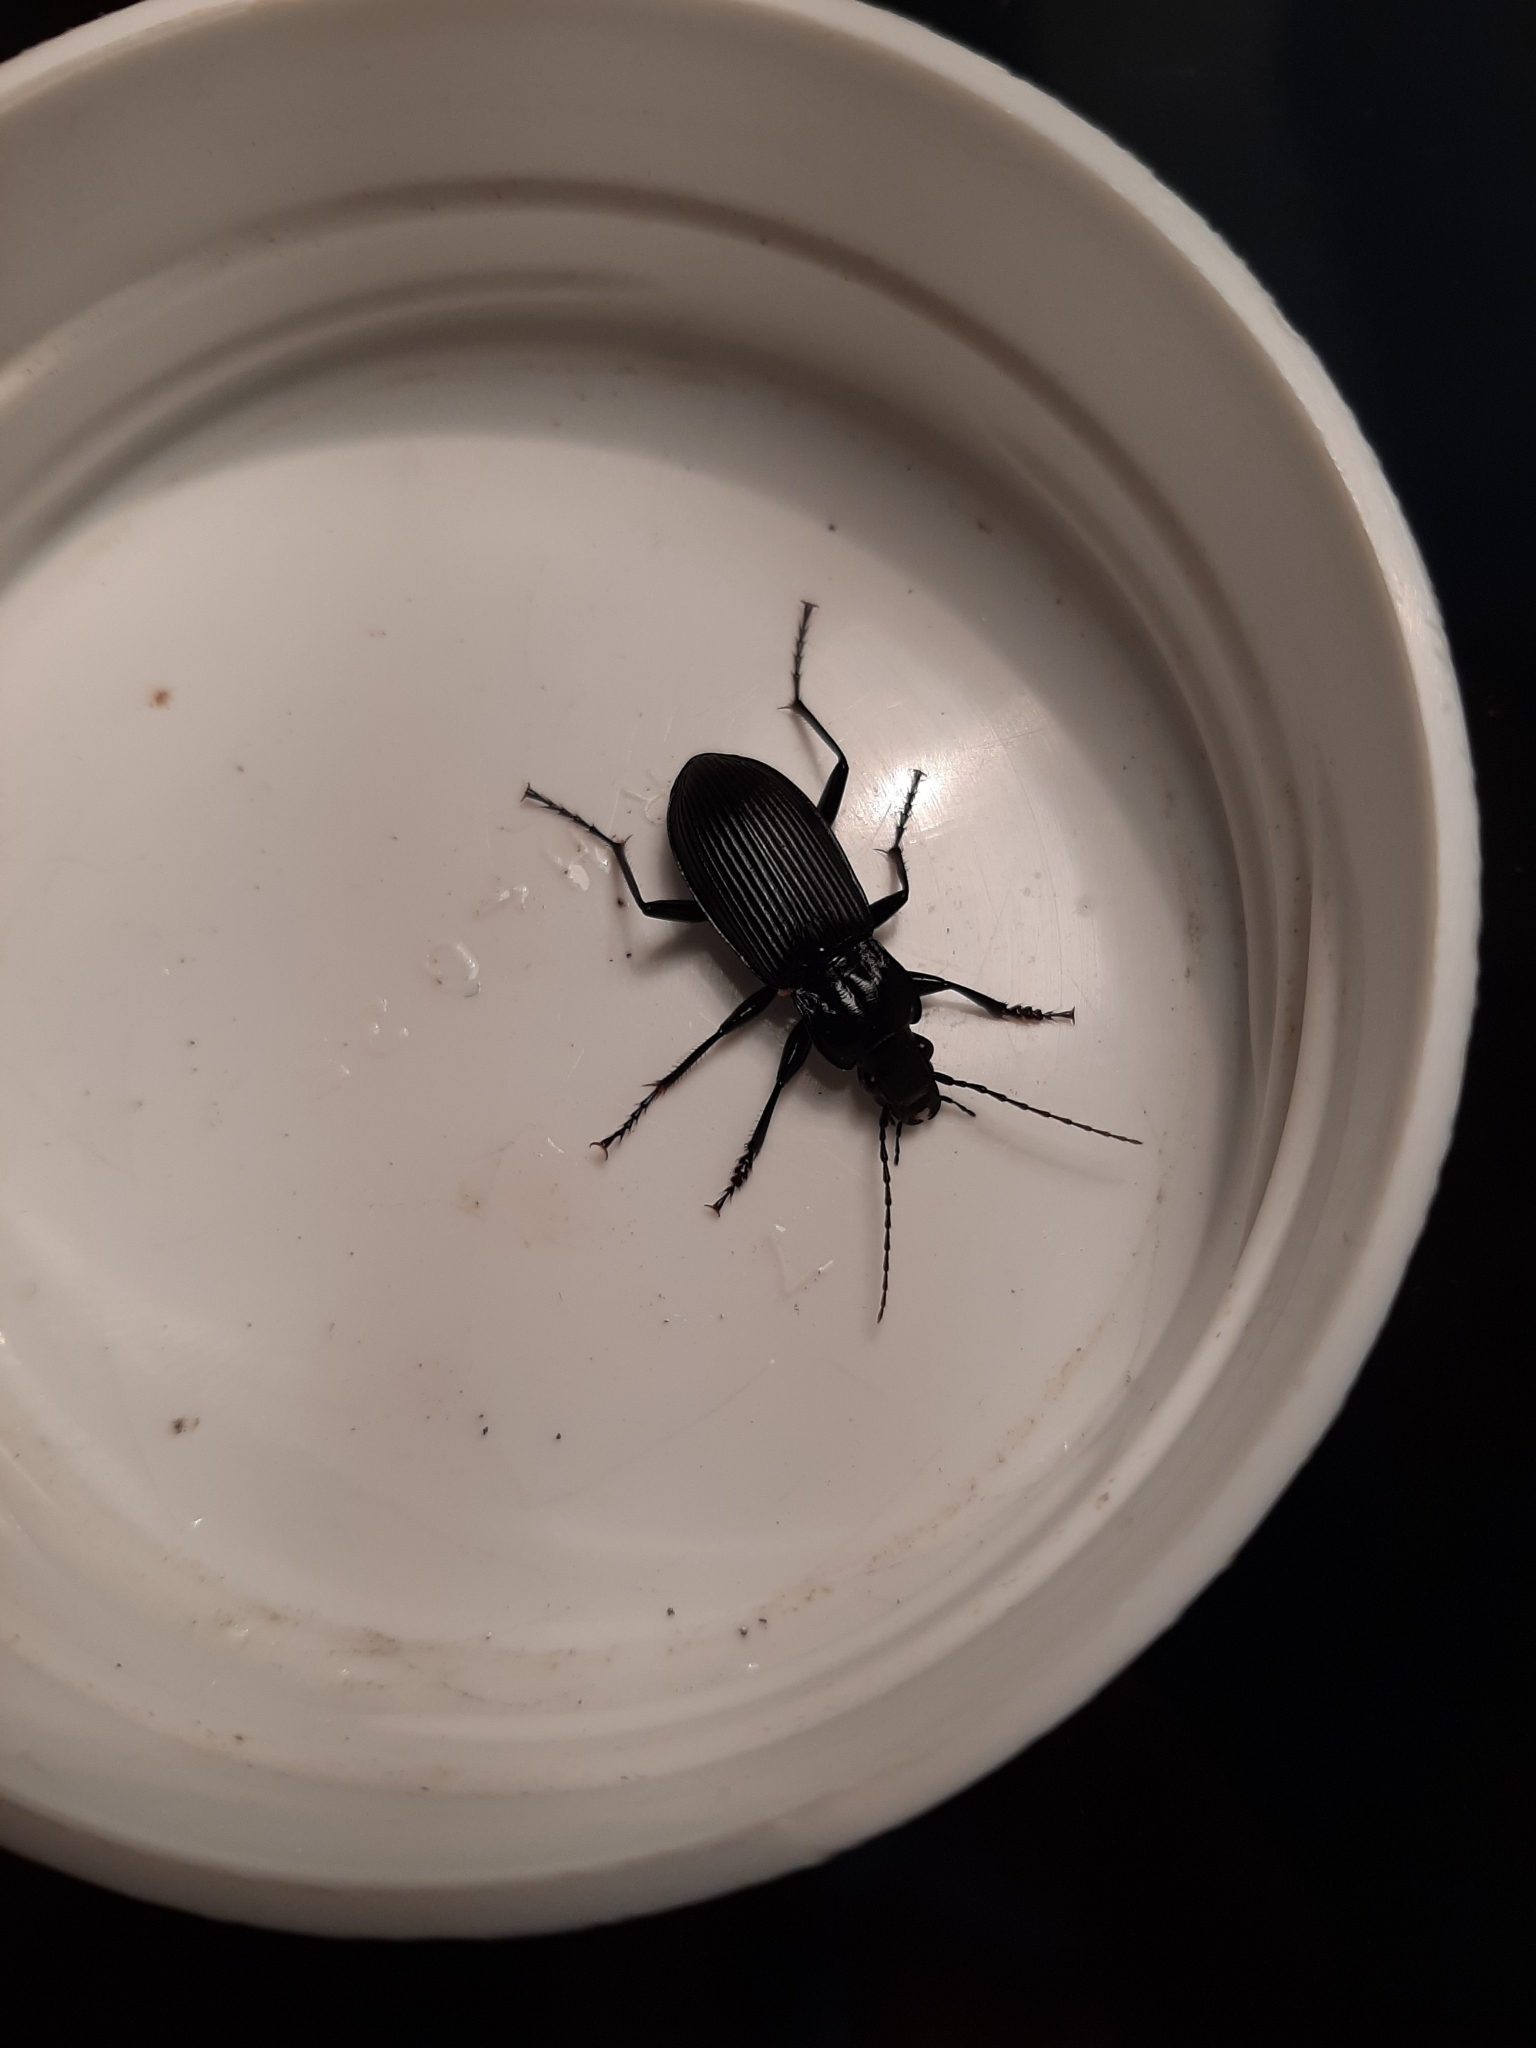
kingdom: Animalia
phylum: Arthropoda
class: Insecta
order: Coleoptera
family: Carabidae
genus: Pterostichus
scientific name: Pterostichus niger
